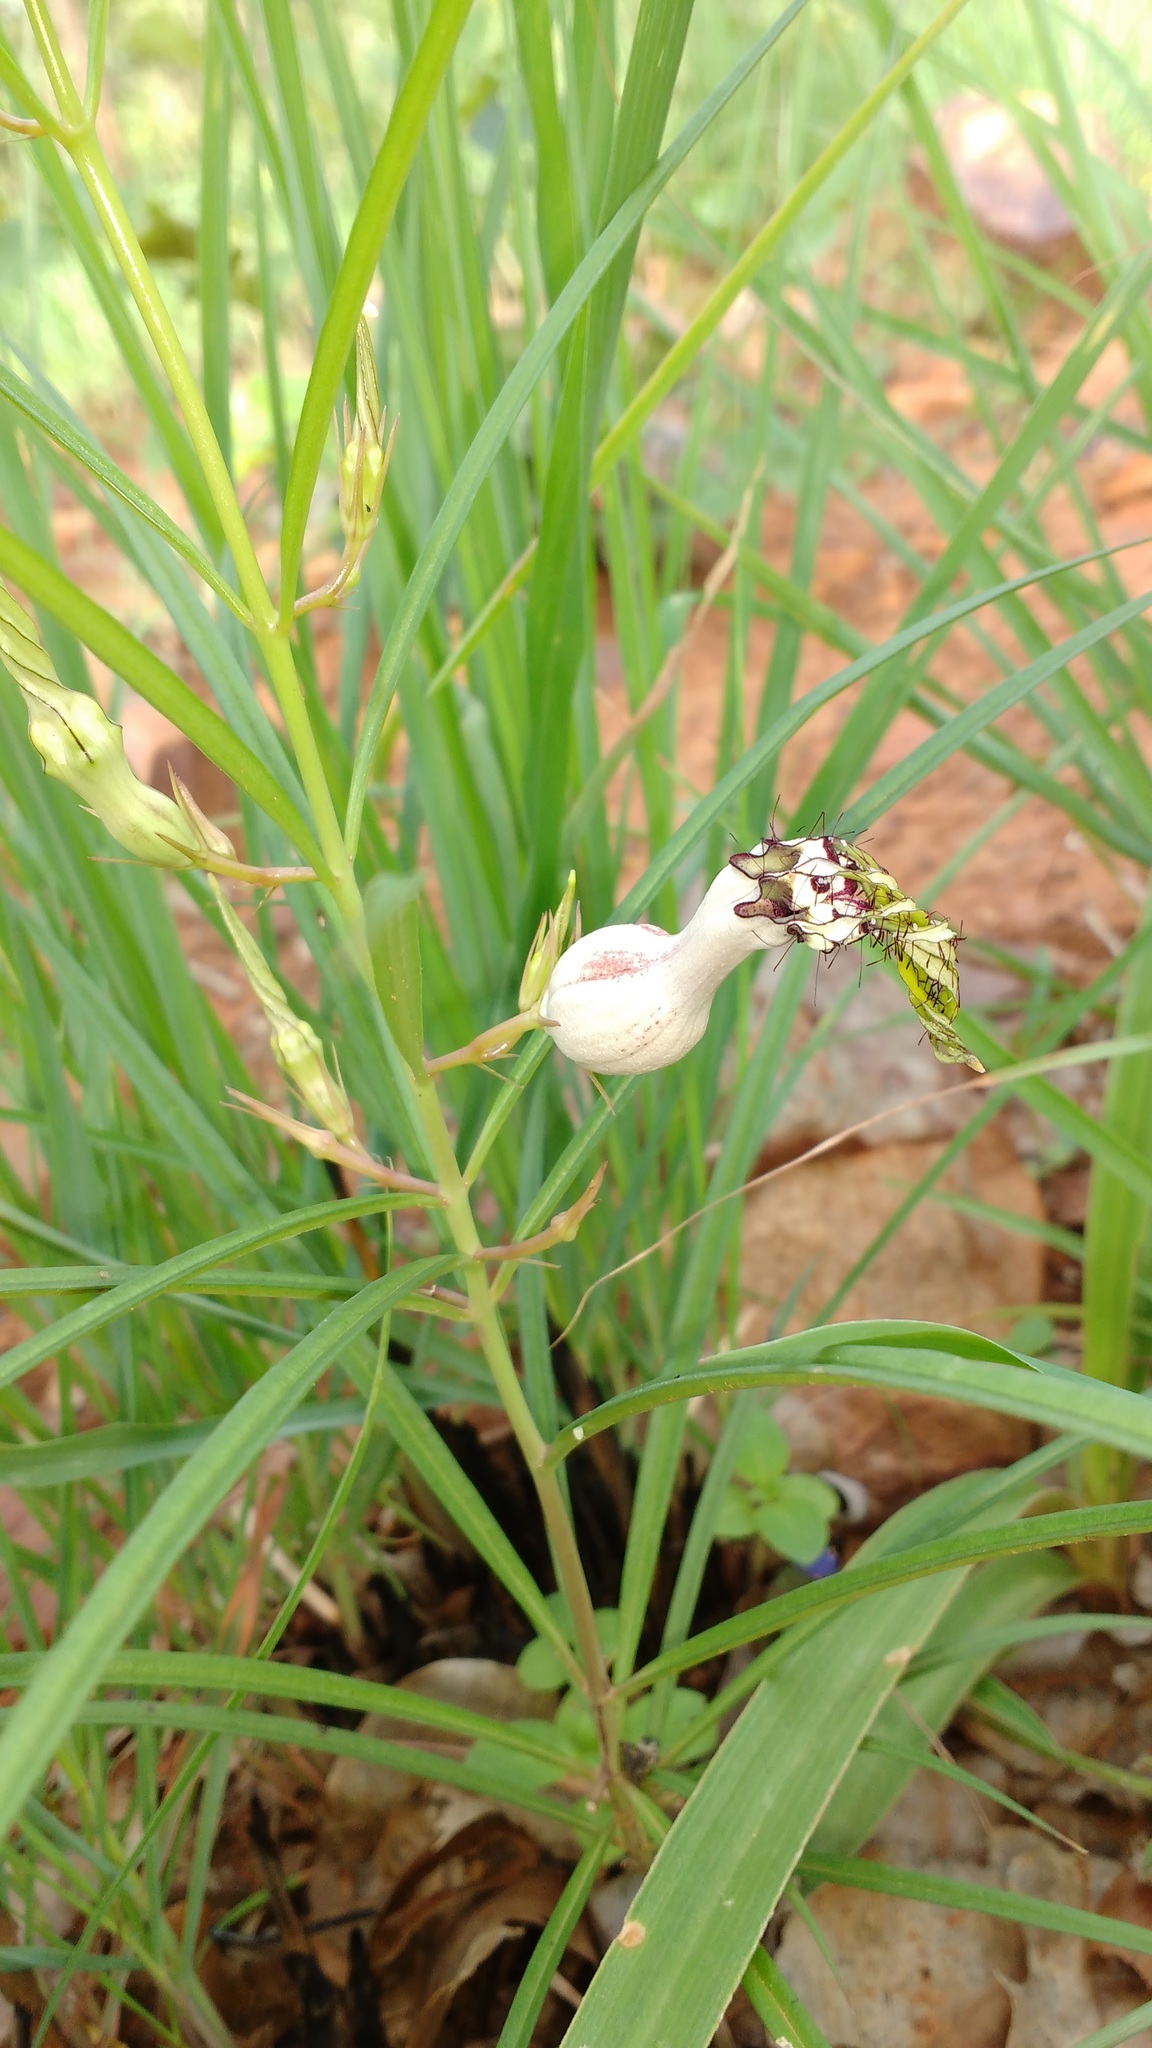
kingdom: Plantae
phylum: Tracheophyta
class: Magnoliopsida
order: Gentianales
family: Apocynaceae
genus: Ceropegia
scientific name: Ceropegia spiralis
